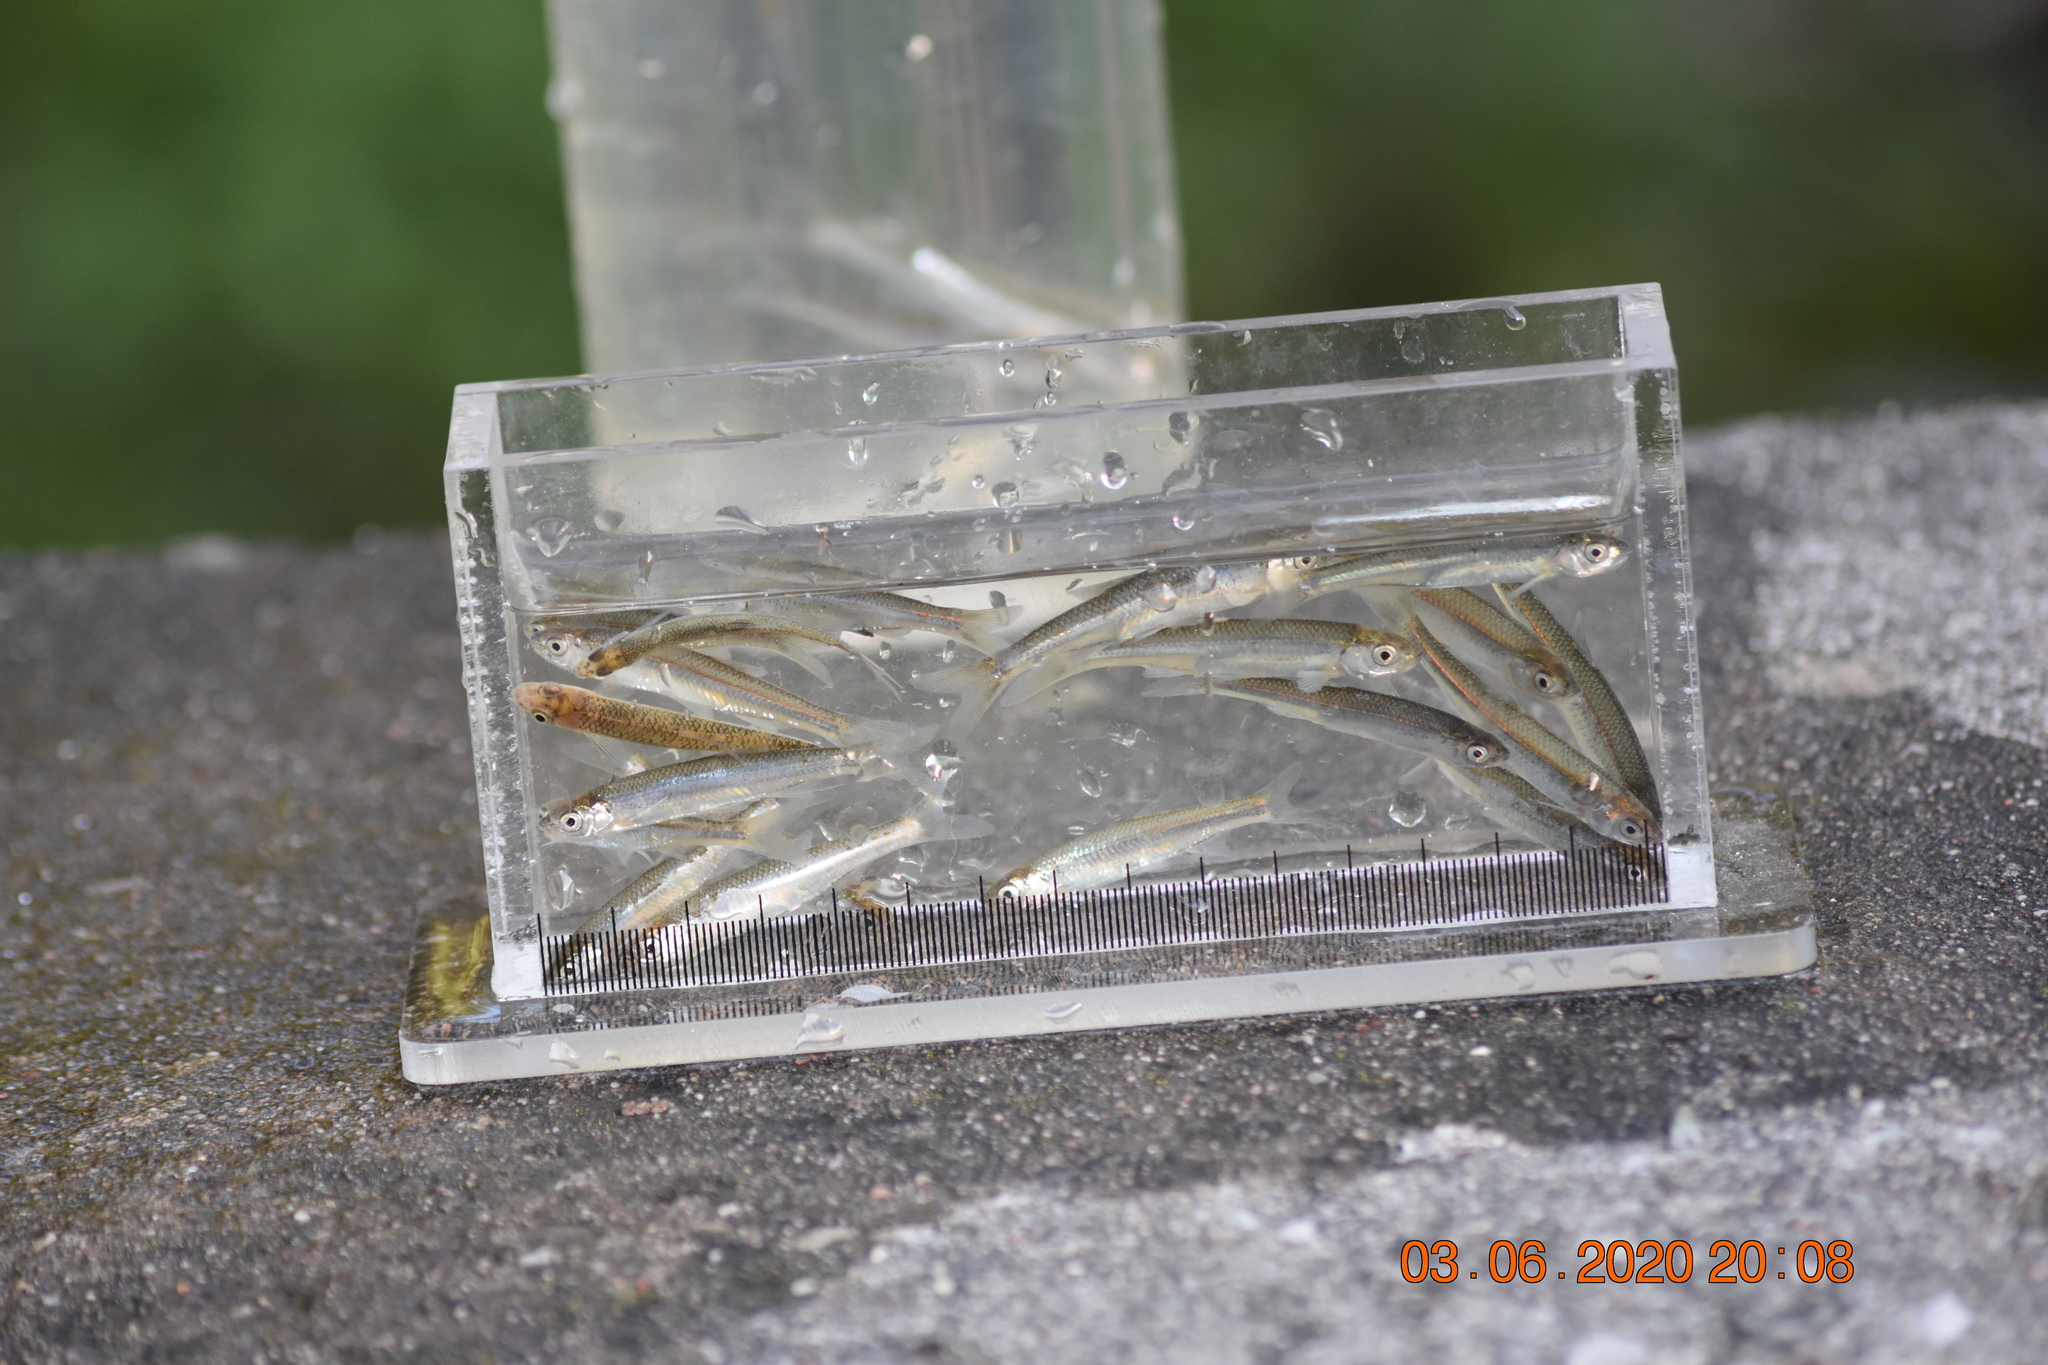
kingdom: Animalia
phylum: Chordata
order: Cypriniformes
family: Cyprinidae
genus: Notropis
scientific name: Notropis atherinoides
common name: Emerald shiner
